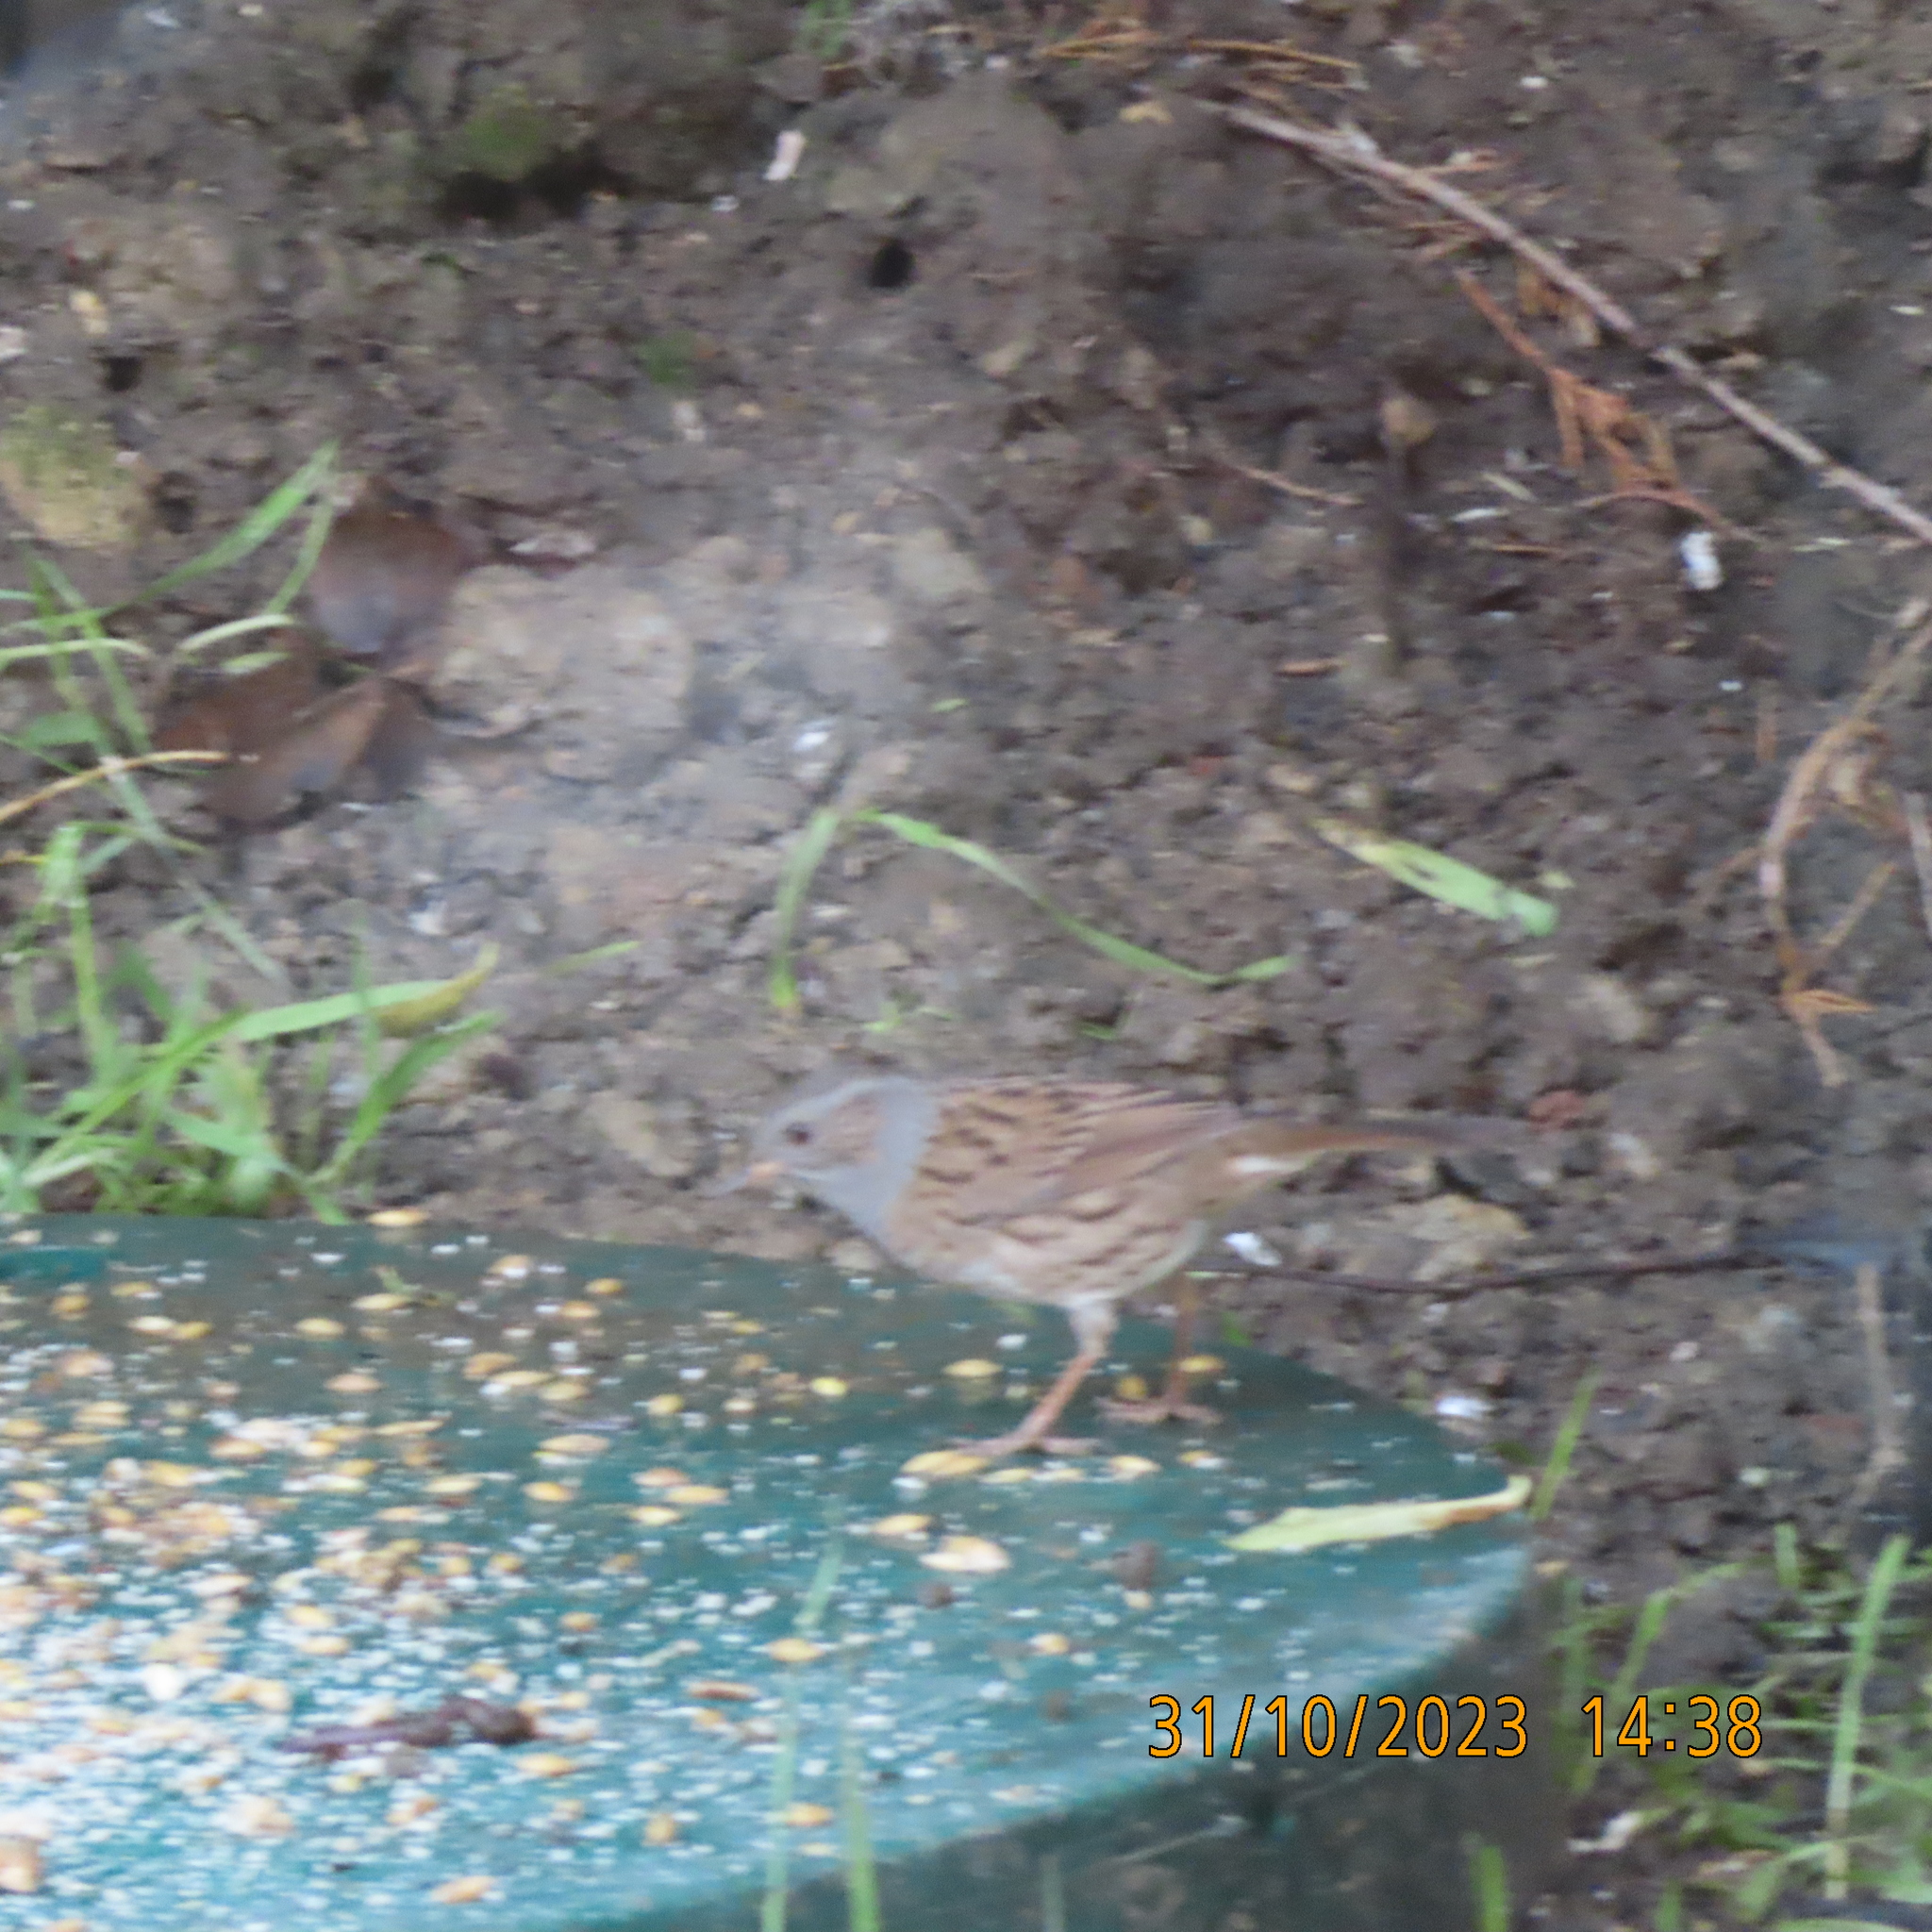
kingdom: Animalia
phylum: Chordata
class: Aves
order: Passeriformes
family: Prunellidae
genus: Prunella
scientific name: Prunella modularis
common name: Dunnock
